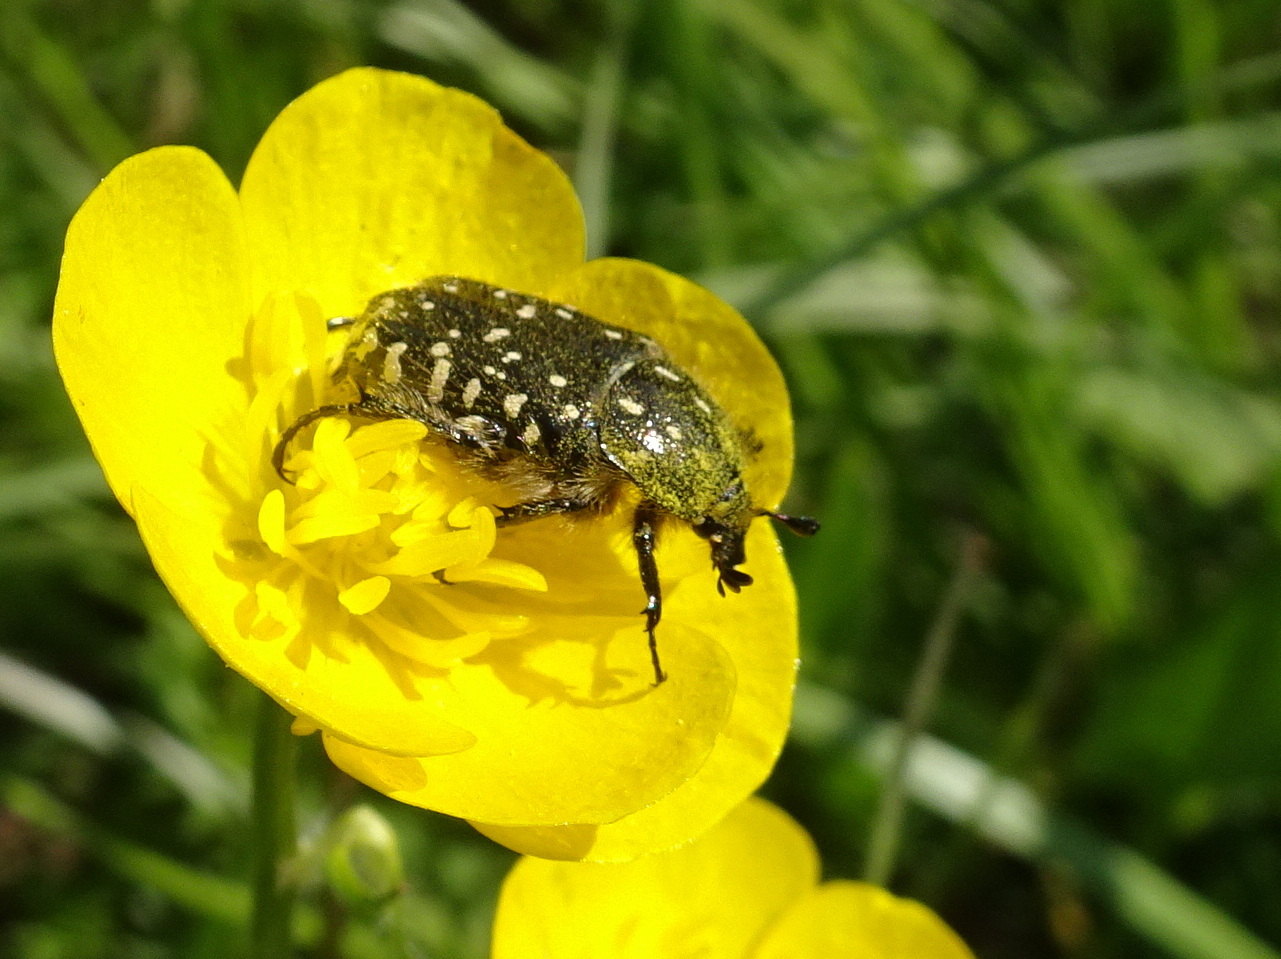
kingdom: Animalia
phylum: Arthropoda
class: Insecta
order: Coleoptera
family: Scarabaeidae
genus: Oxythyrea
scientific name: Oxythyrea funesta
